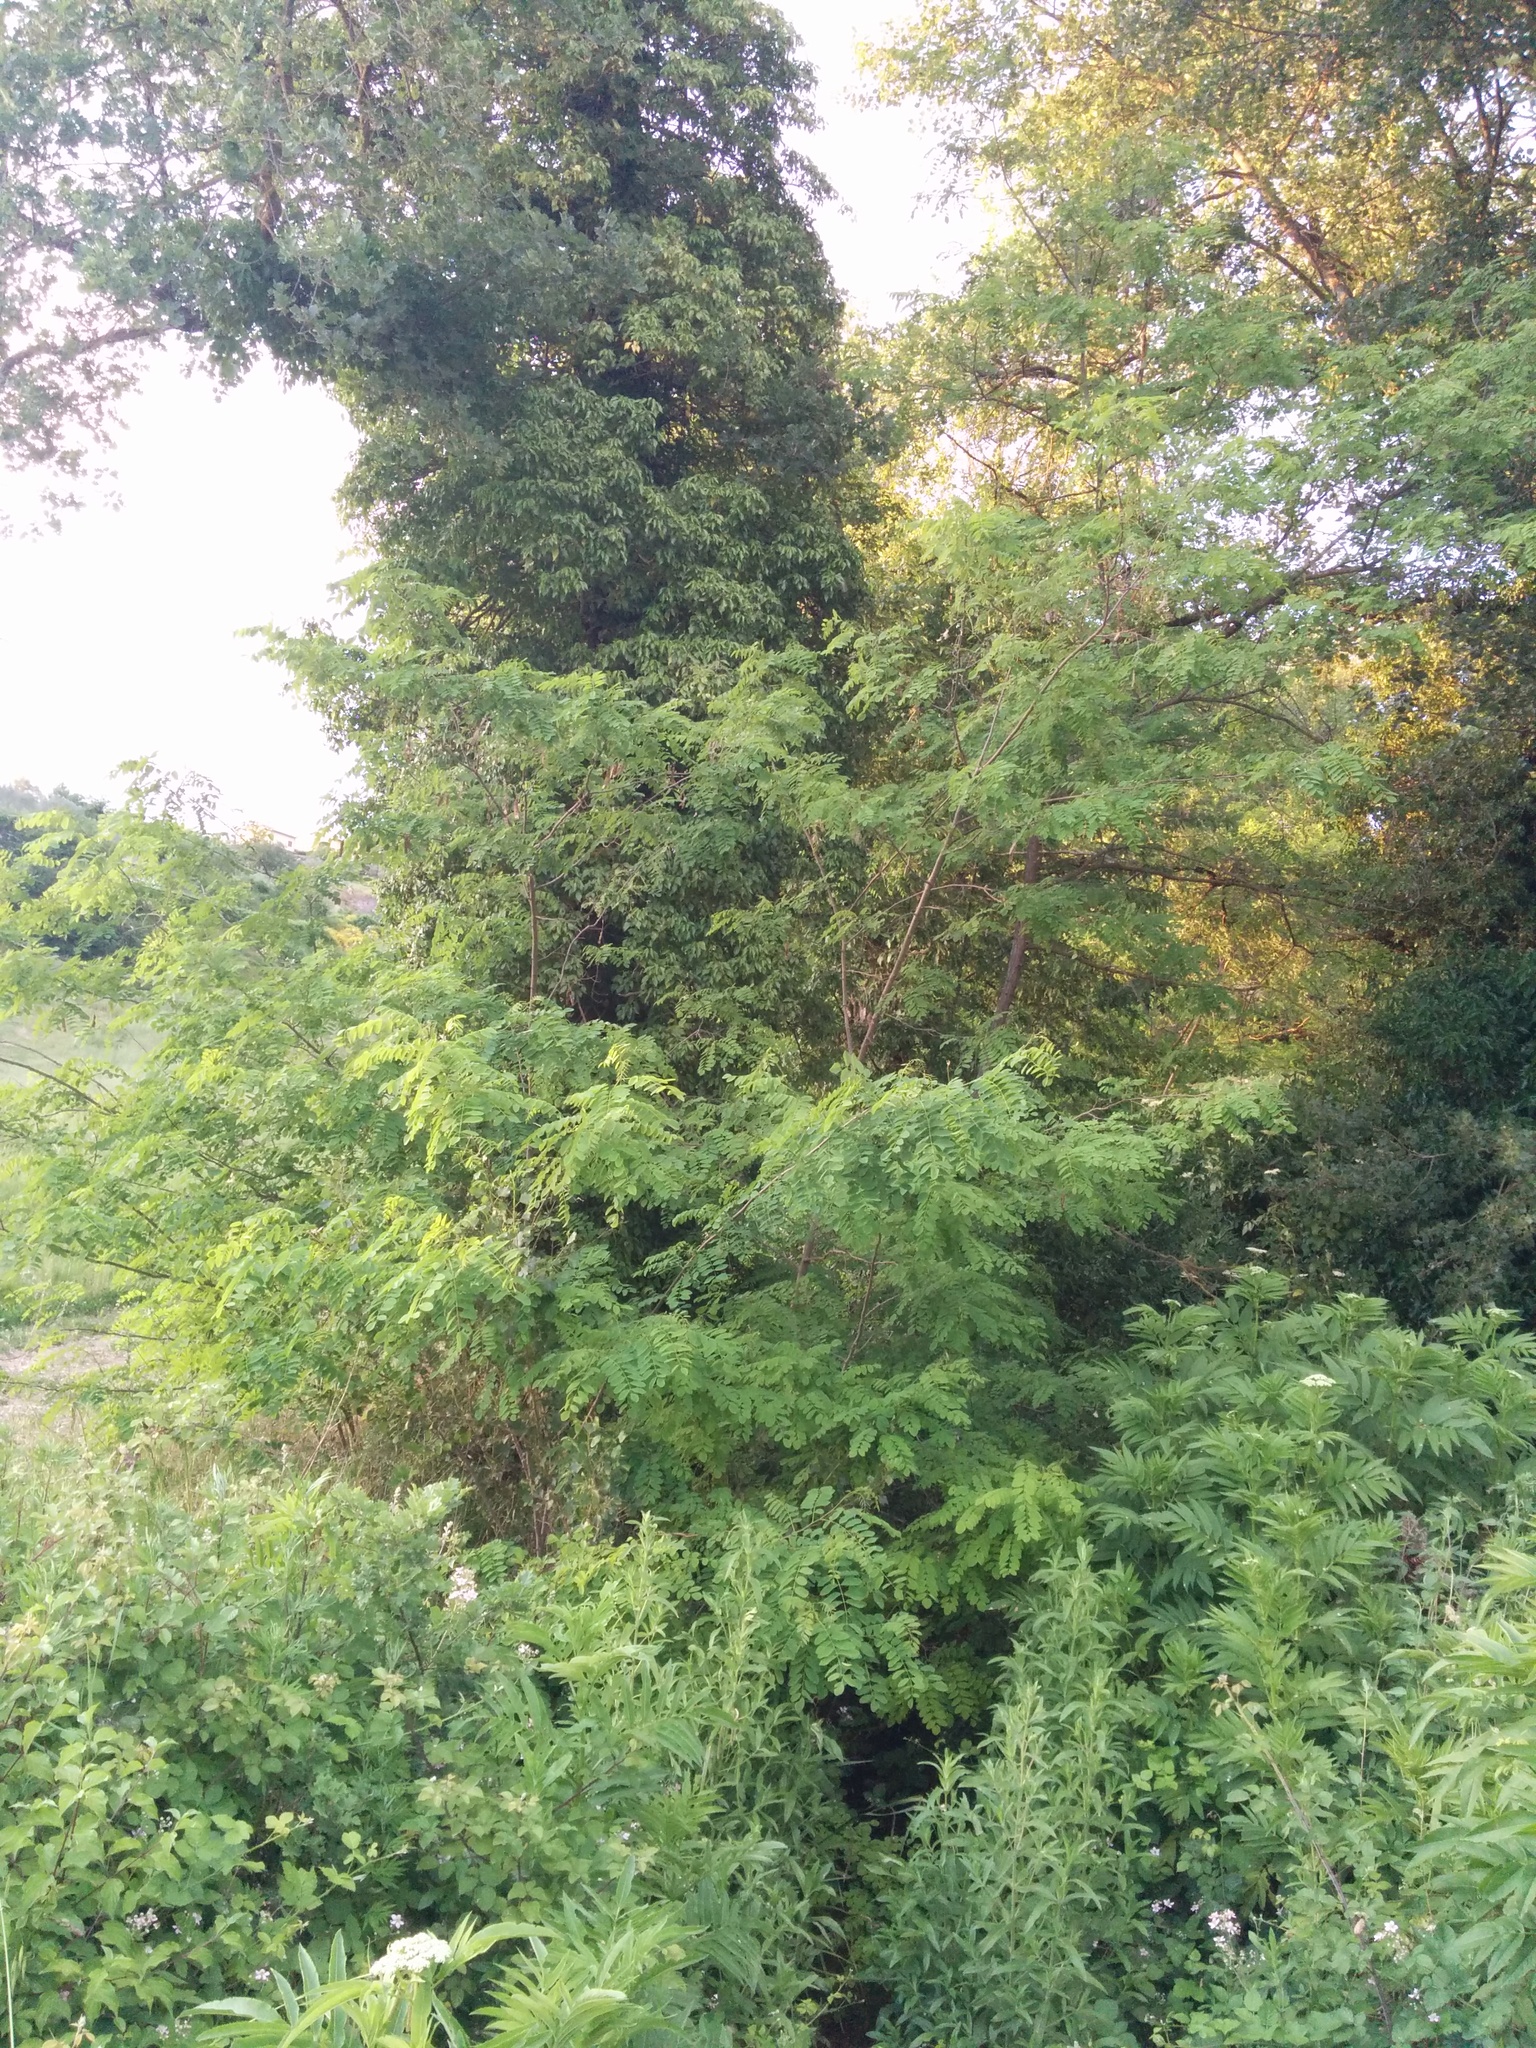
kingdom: Plantae
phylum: Tracheophyta
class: Magnoliopsida
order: Fabales
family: Fabaceae
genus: Robinia
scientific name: Robinia pseudoacacia
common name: Black locust
